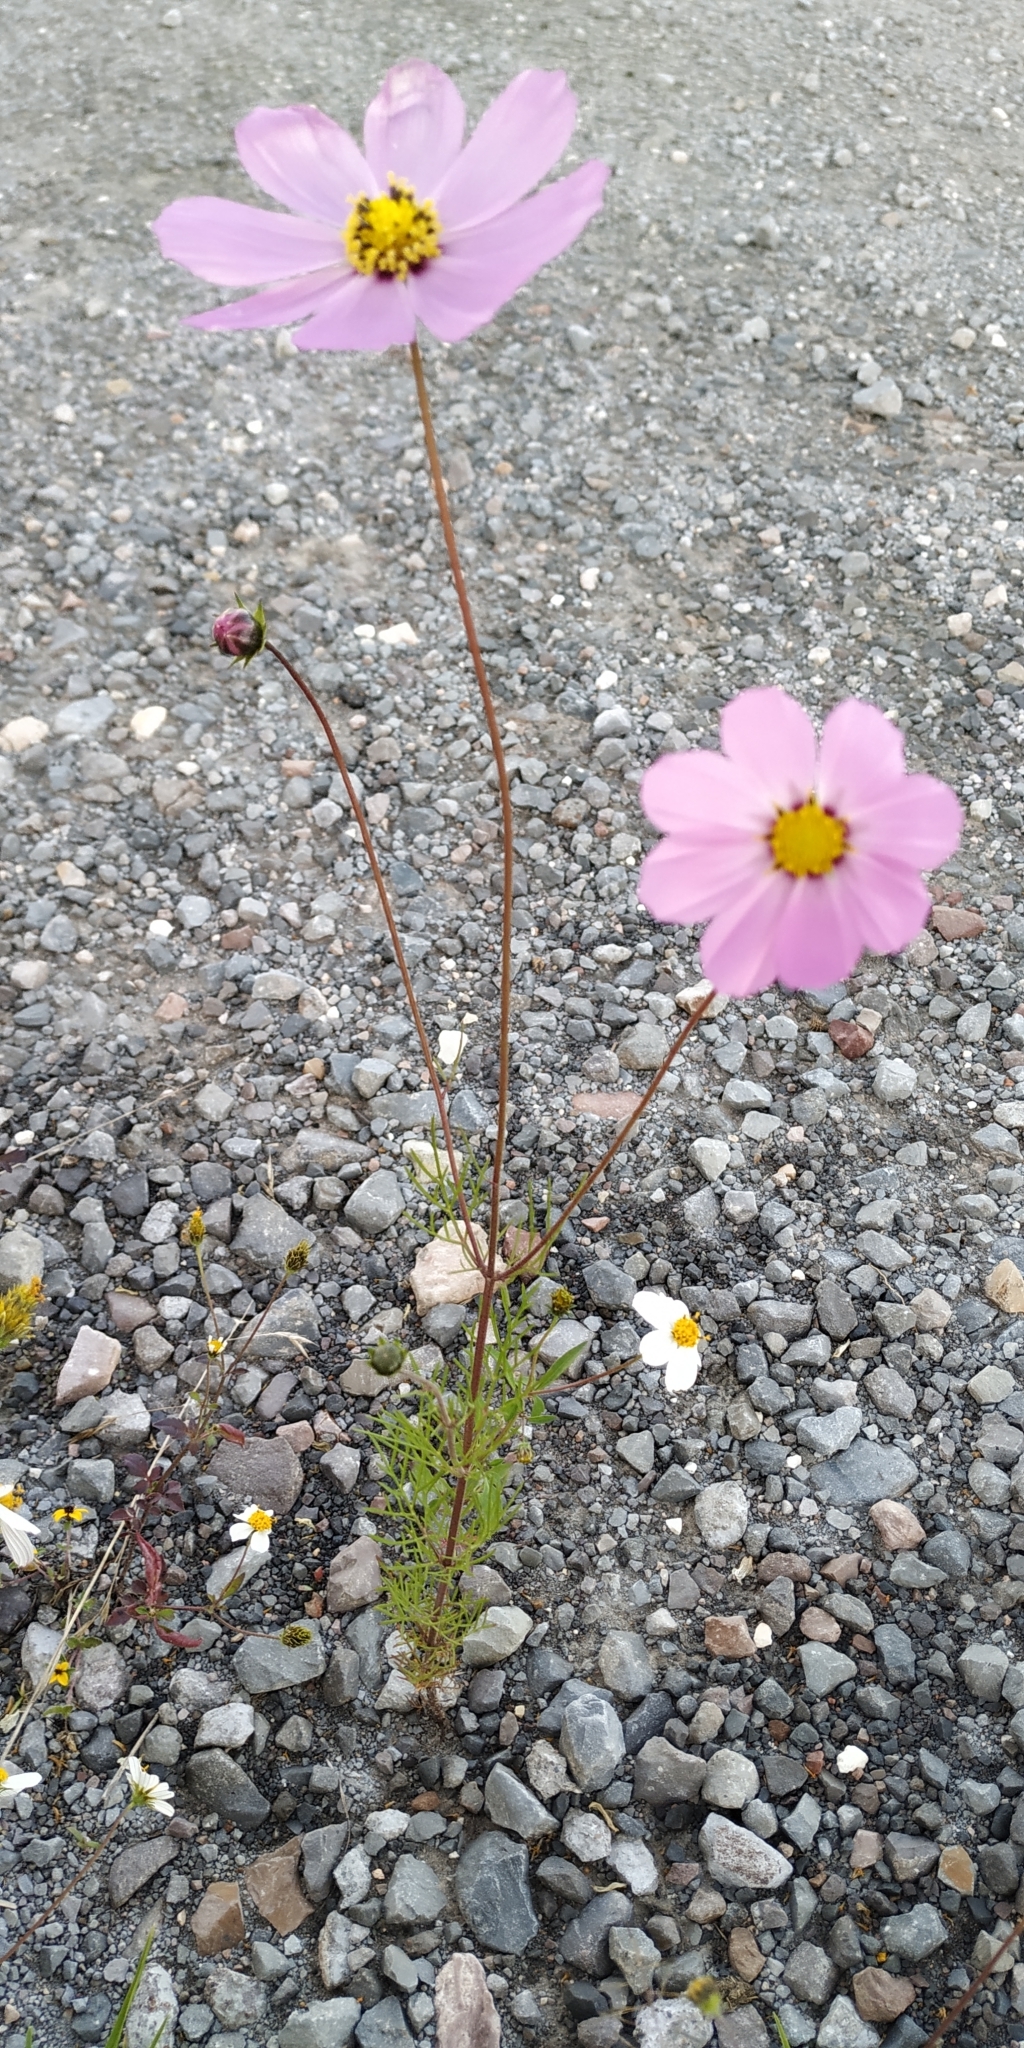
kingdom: Plantae
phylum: Tracheophyta
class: Magnoliopsida
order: Asterales
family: Asteraceae
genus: Cosmos
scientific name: Cosmos bipinnatus
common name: Garden cosmos
